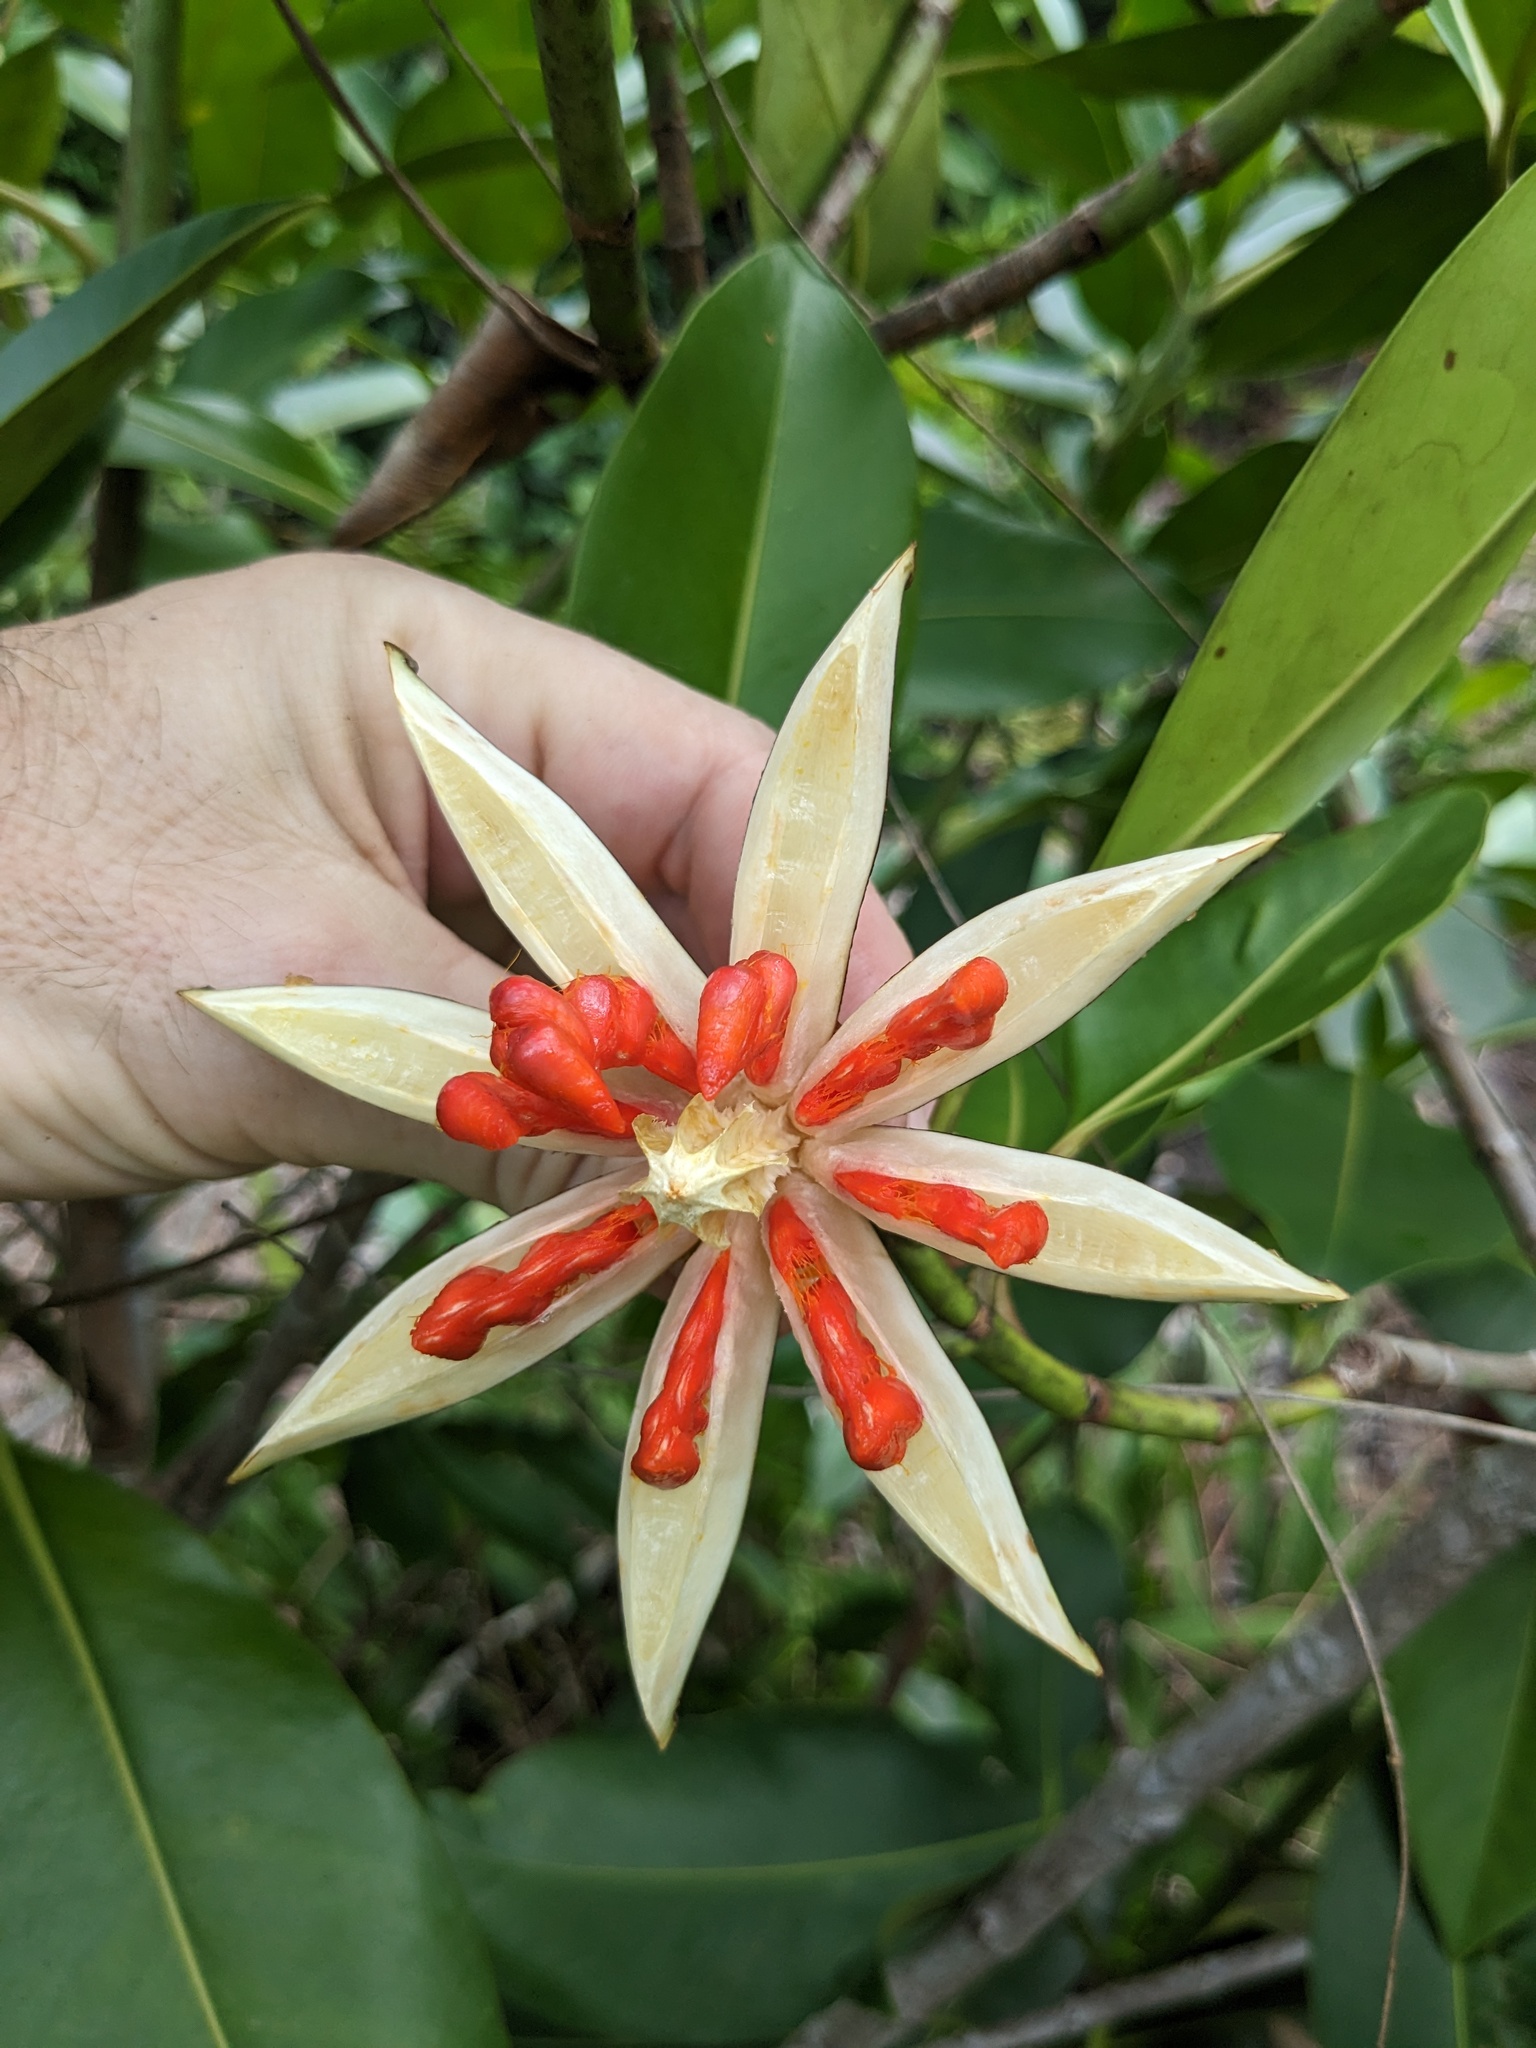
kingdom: Plantae
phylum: Tracheophyta
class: Magnoliopsida
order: Malpighiales
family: Clusiaceae
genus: Clusia
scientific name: Clusia nemorosa
